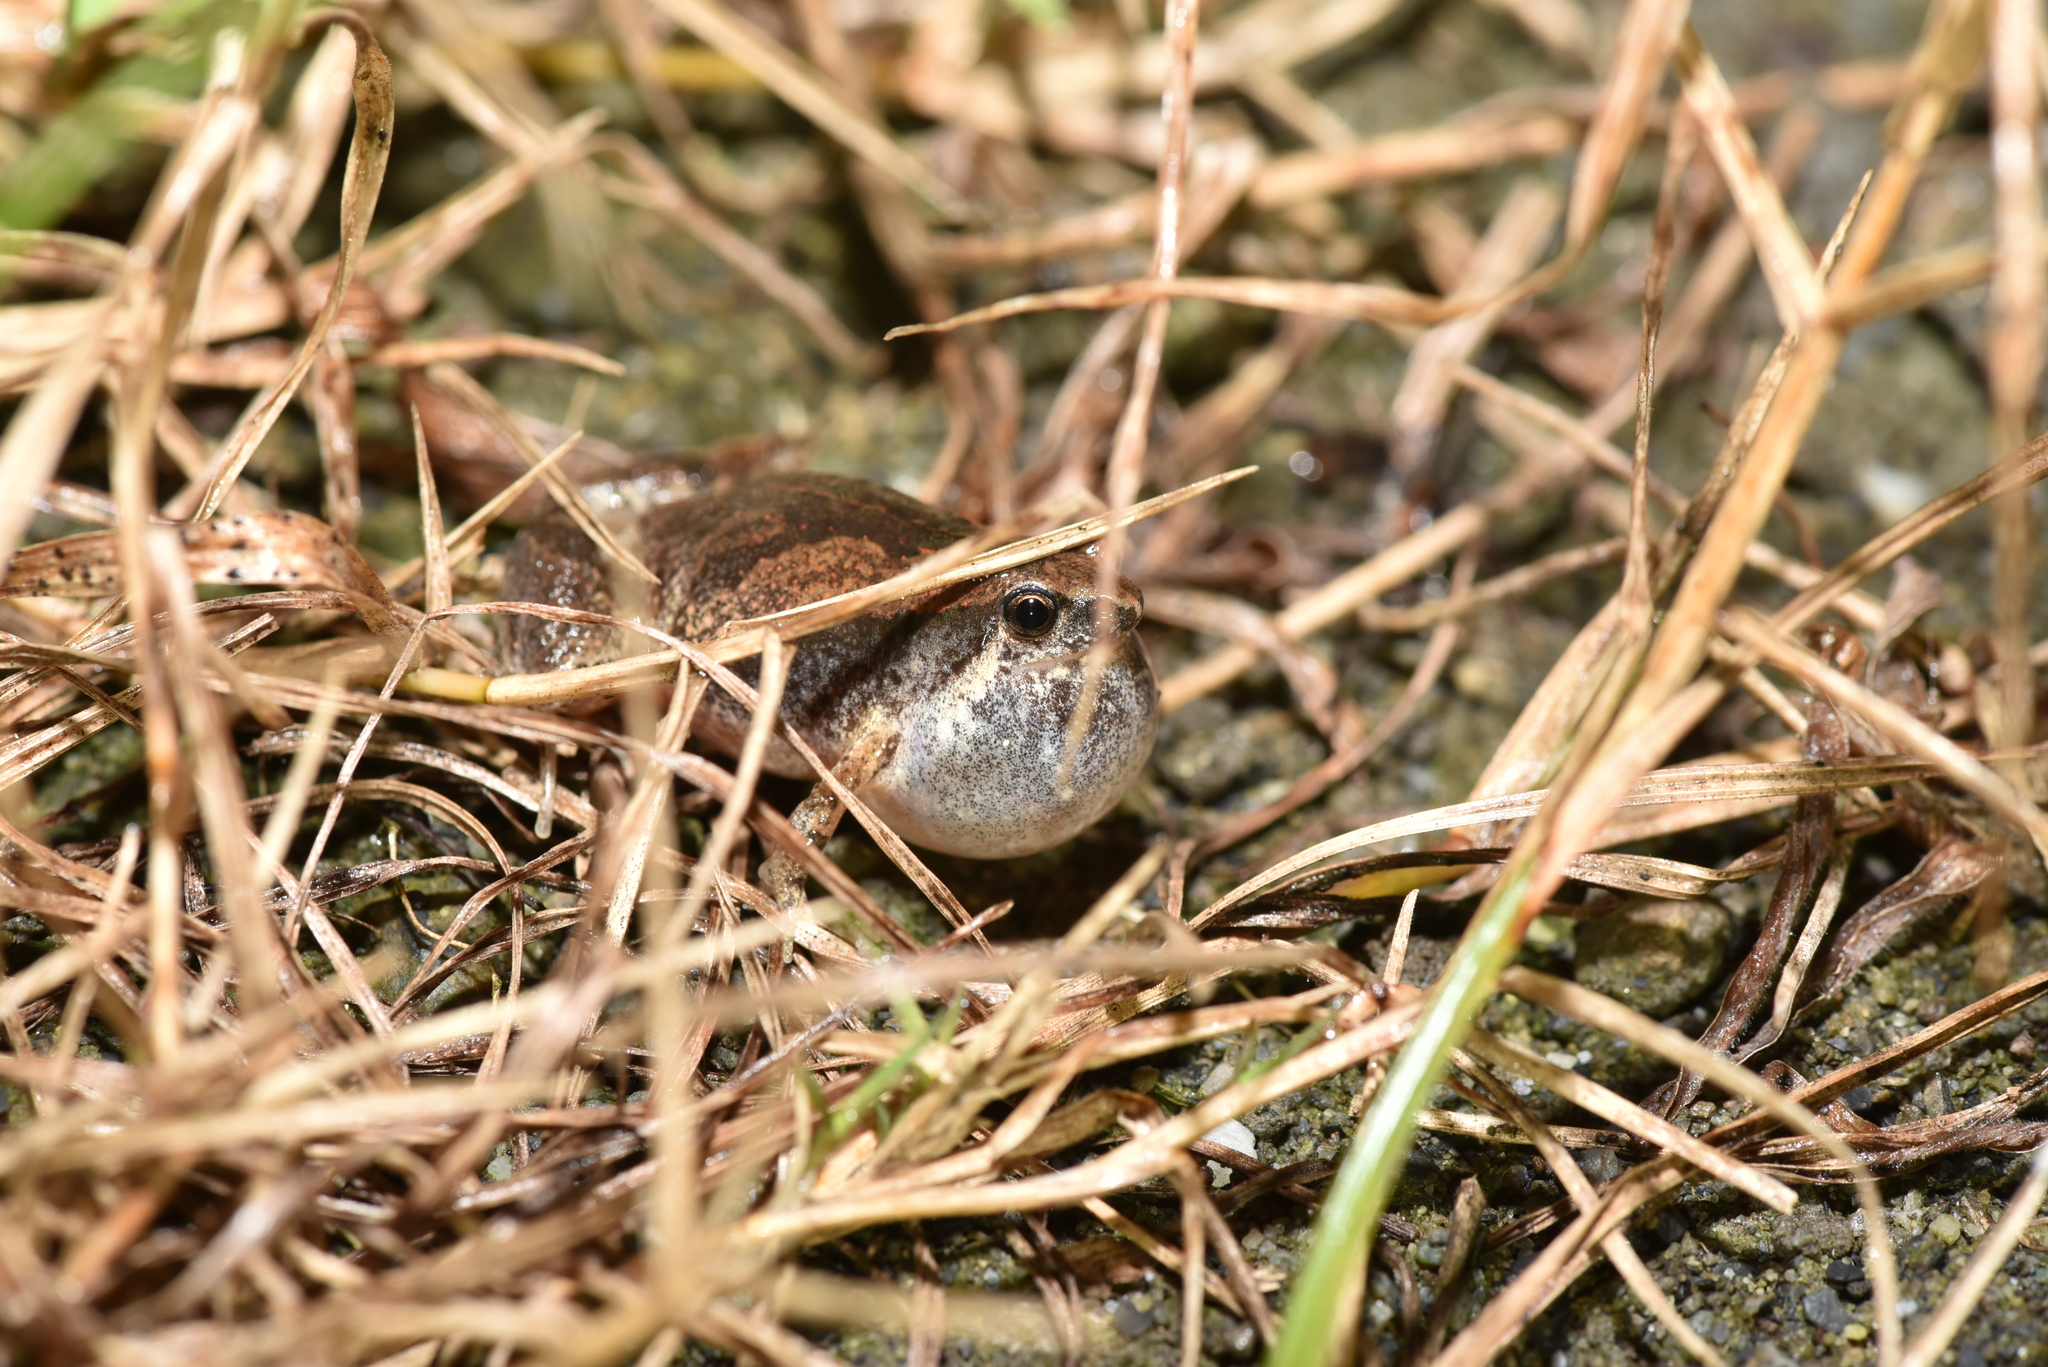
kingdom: Animalia
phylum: Chordata
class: Amphibia
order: Anura
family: Microhylidae
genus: Microhyla
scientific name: Microhyla fissipes
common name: Ornate narrow-mouthed frog
